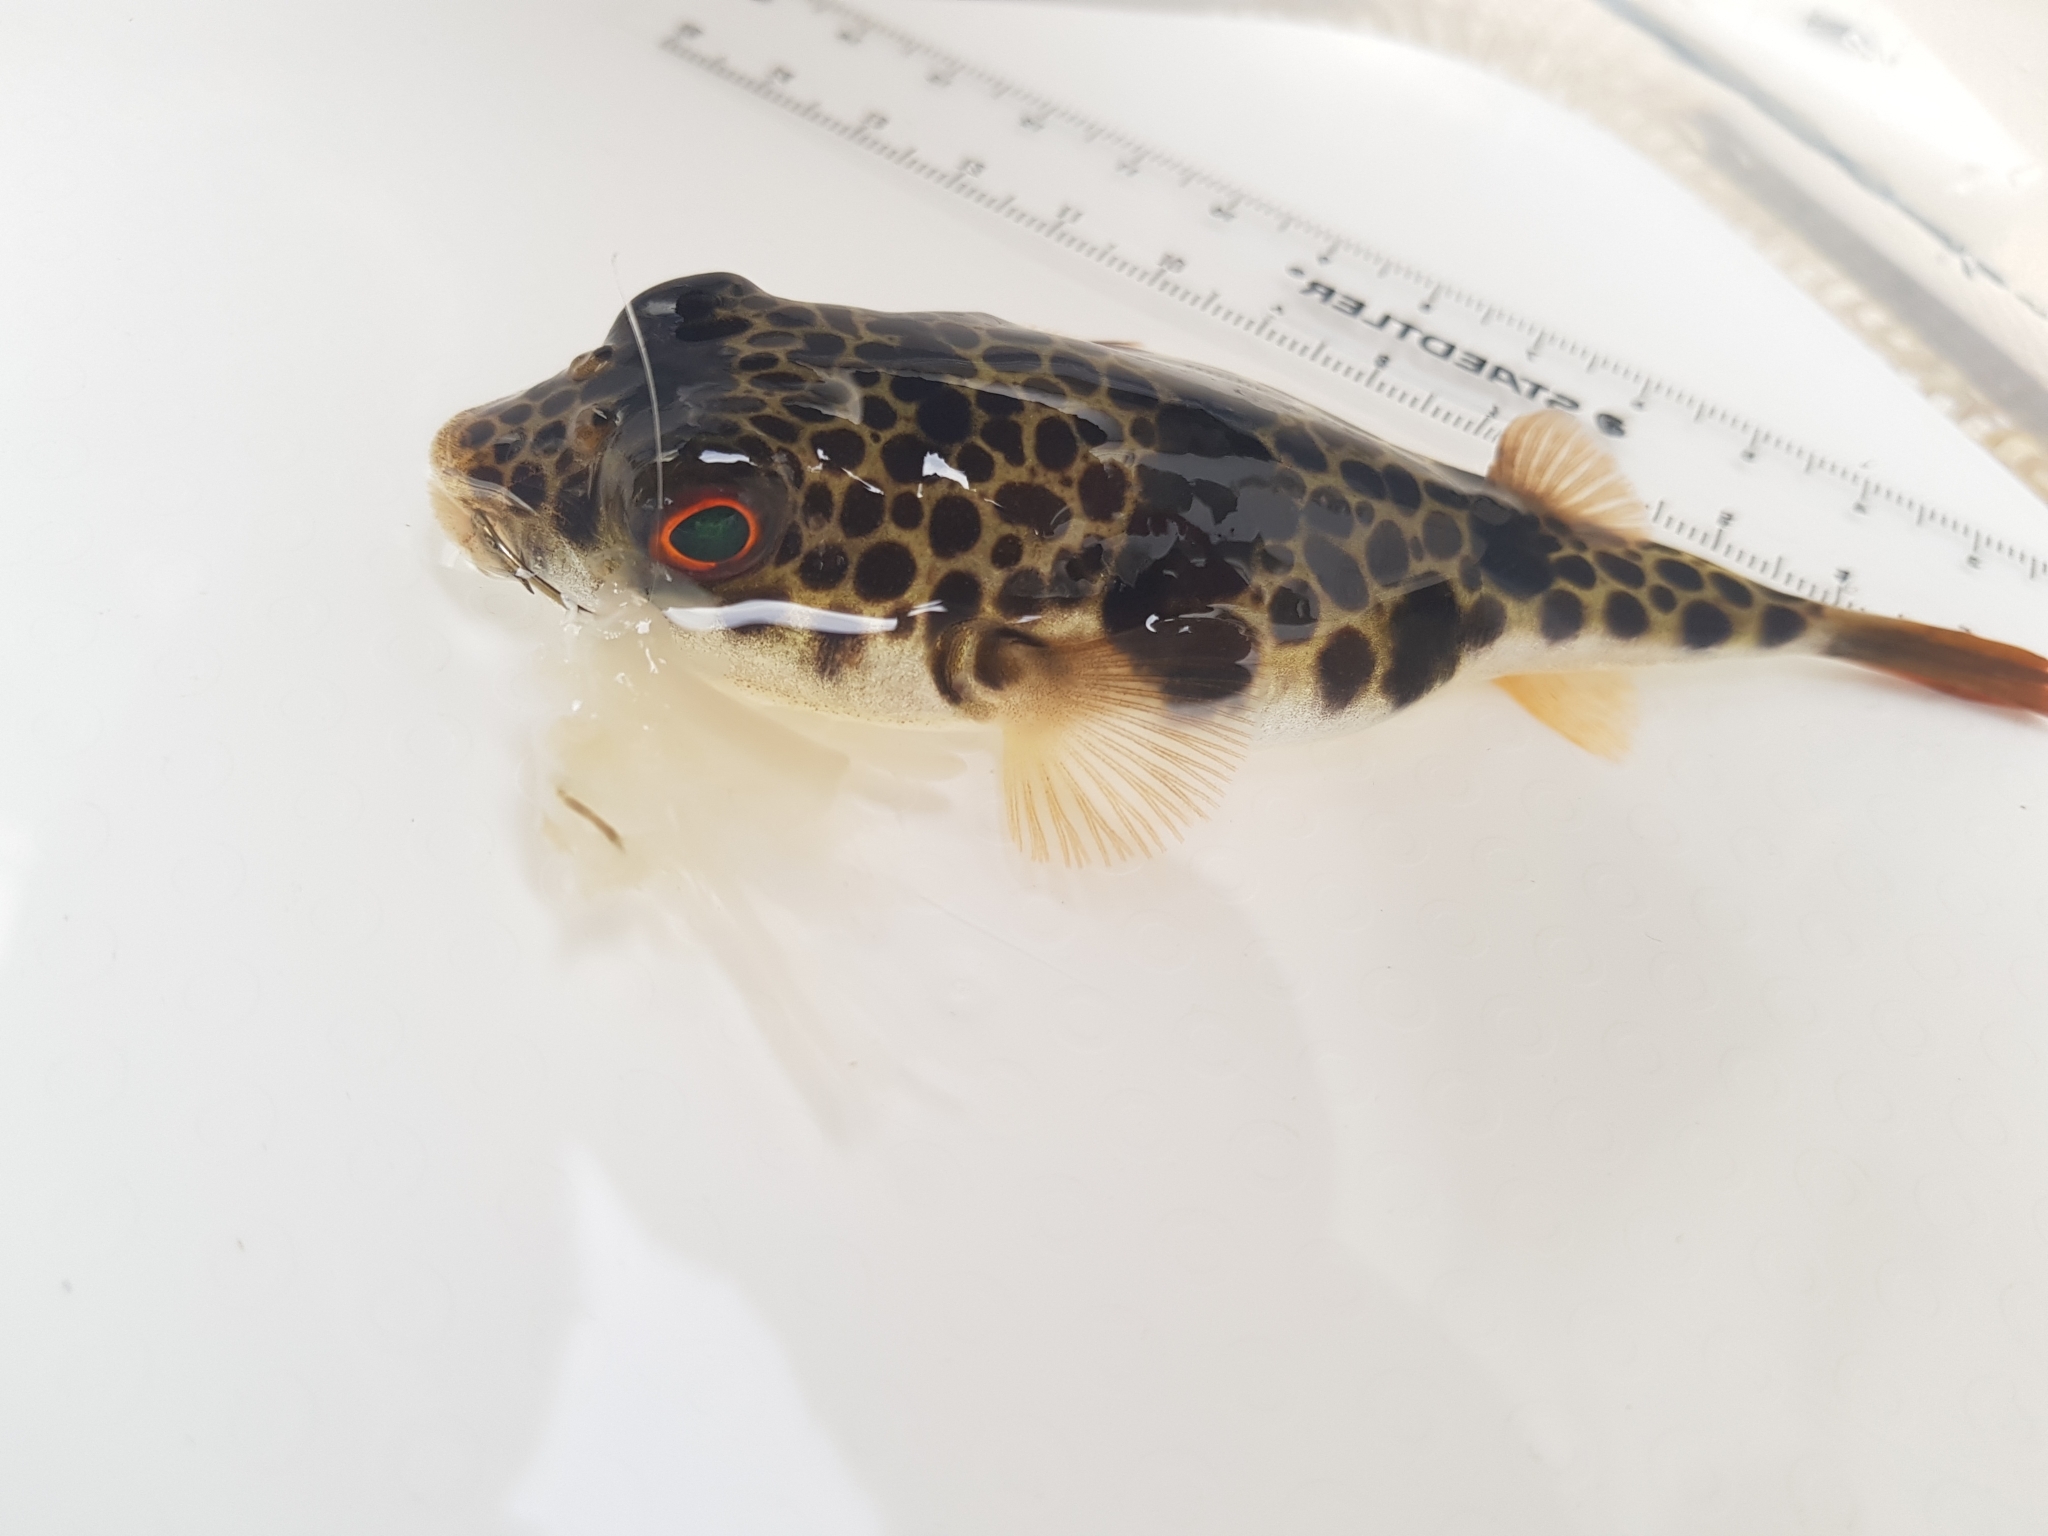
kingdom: Animalia
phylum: Chordata
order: Tetraodontiformes
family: Tetraodontidae
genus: Tetractenos
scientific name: Tetractenos glaber
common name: Smooth toadfish
